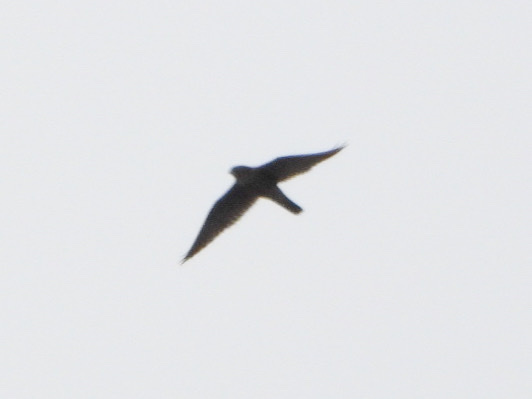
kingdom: Animalia
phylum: Chordata
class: Aves
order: Falconiformes
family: Falconidae
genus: Falco
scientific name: Falco columbarius
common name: Merlin
